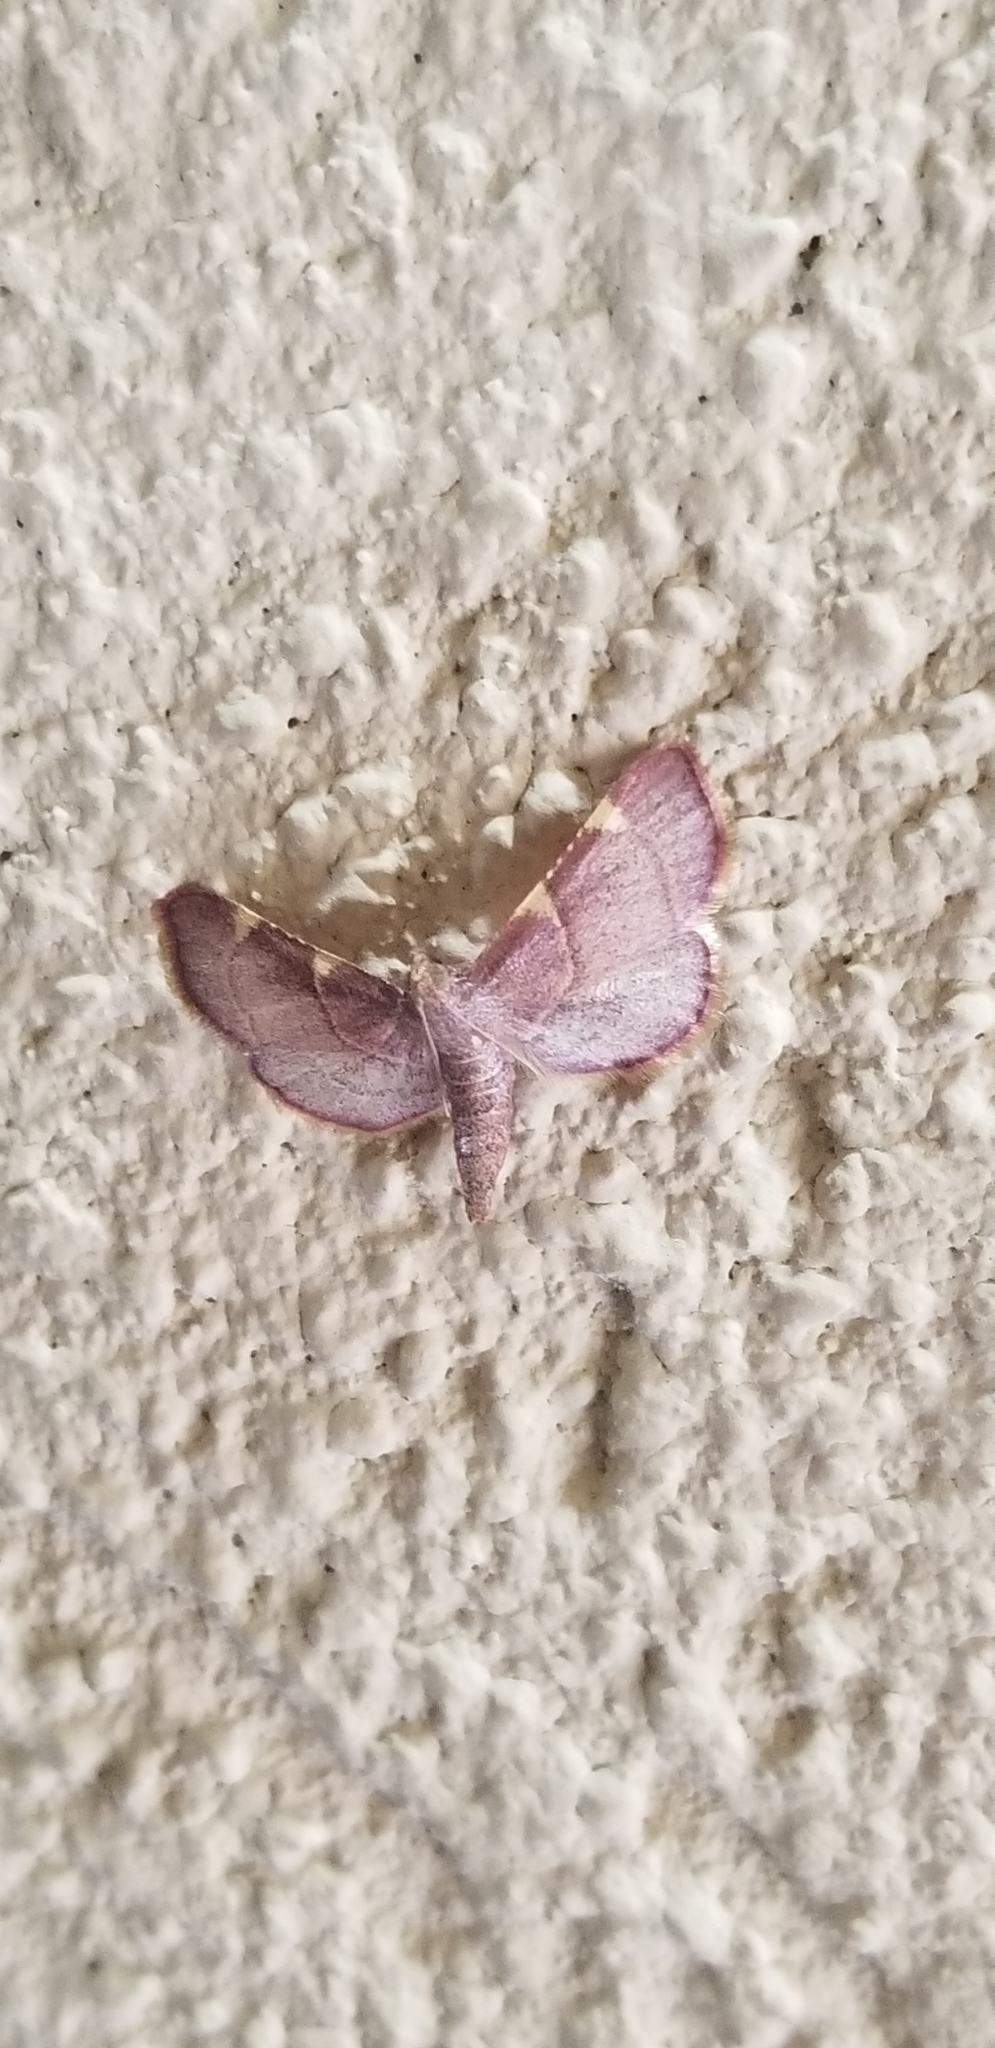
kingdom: Animalia
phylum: Arthropoda
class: Insecta
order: Lepidoptera
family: Pyralidae
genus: Hypsopygia
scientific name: Hypsopygia olinalis
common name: Yellow-fringed dolichomia moth
